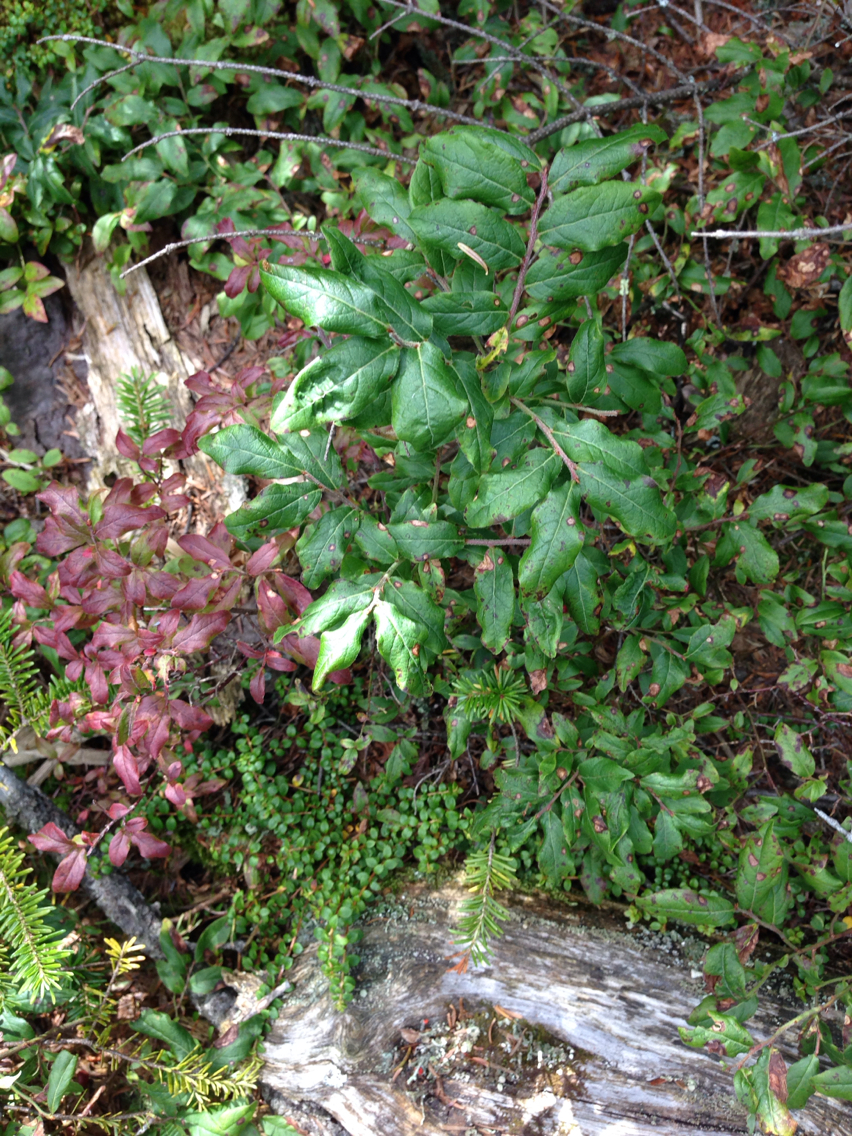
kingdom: Plantae
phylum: Tracheophyta
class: Magnoliopsida
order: Ericales
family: Ericaceae
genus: Vaccinium
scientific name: Vaccinium myrtilloides
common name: Canada blueberry
